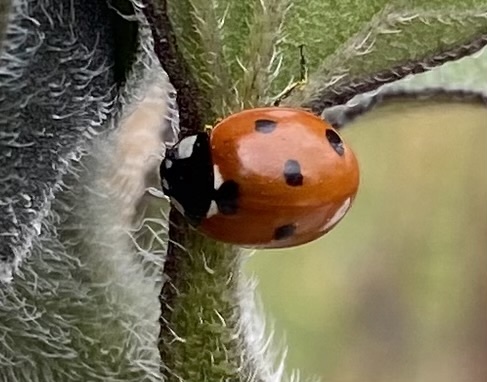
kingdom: Animalia
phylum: Arthropoda
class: Insecta
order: Coleoptera
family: Coccinellidae
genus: Coccinella
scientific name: Coccinella septempunctata
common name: Sevenspotted lady beetle
